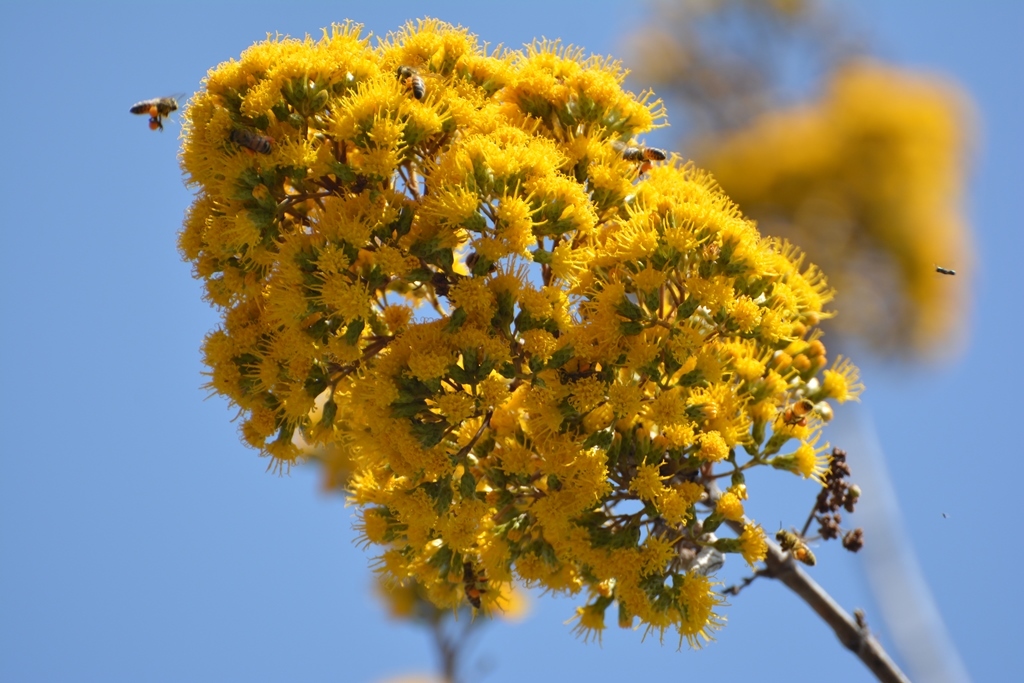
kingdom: Plantae
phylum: Tracheophyta
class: Magnoliopsida
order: Asterales
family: Asteraceae
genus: Sinclairia
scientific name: Sinclairia vagans
